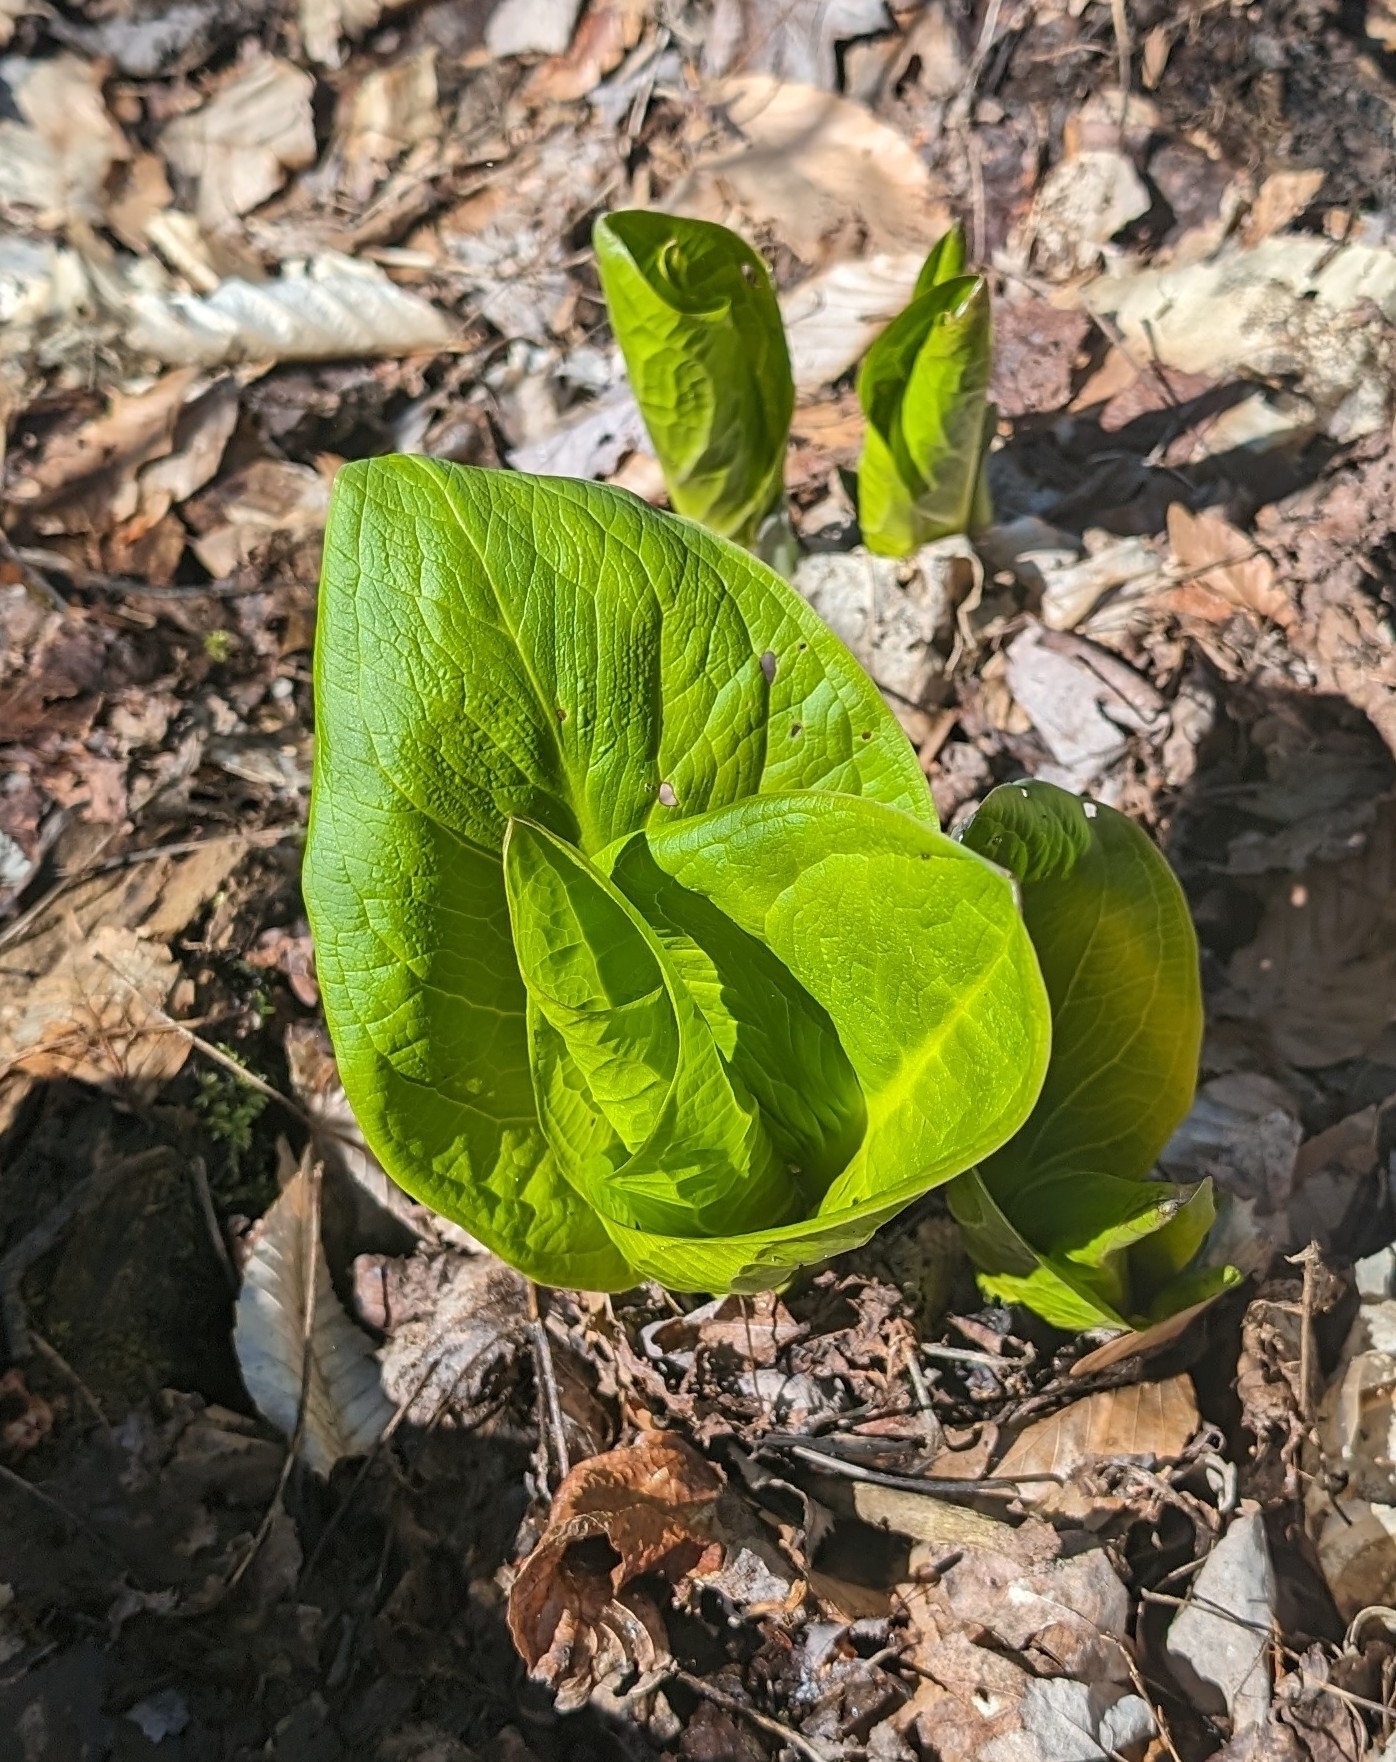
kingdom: Plantae
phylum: Tracheophyta
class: Liliopsida
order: Alismatales
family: Araceae
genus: Symplocarpus
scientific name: Symplocarpus foetidus
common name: Eastern skunk cabbage
